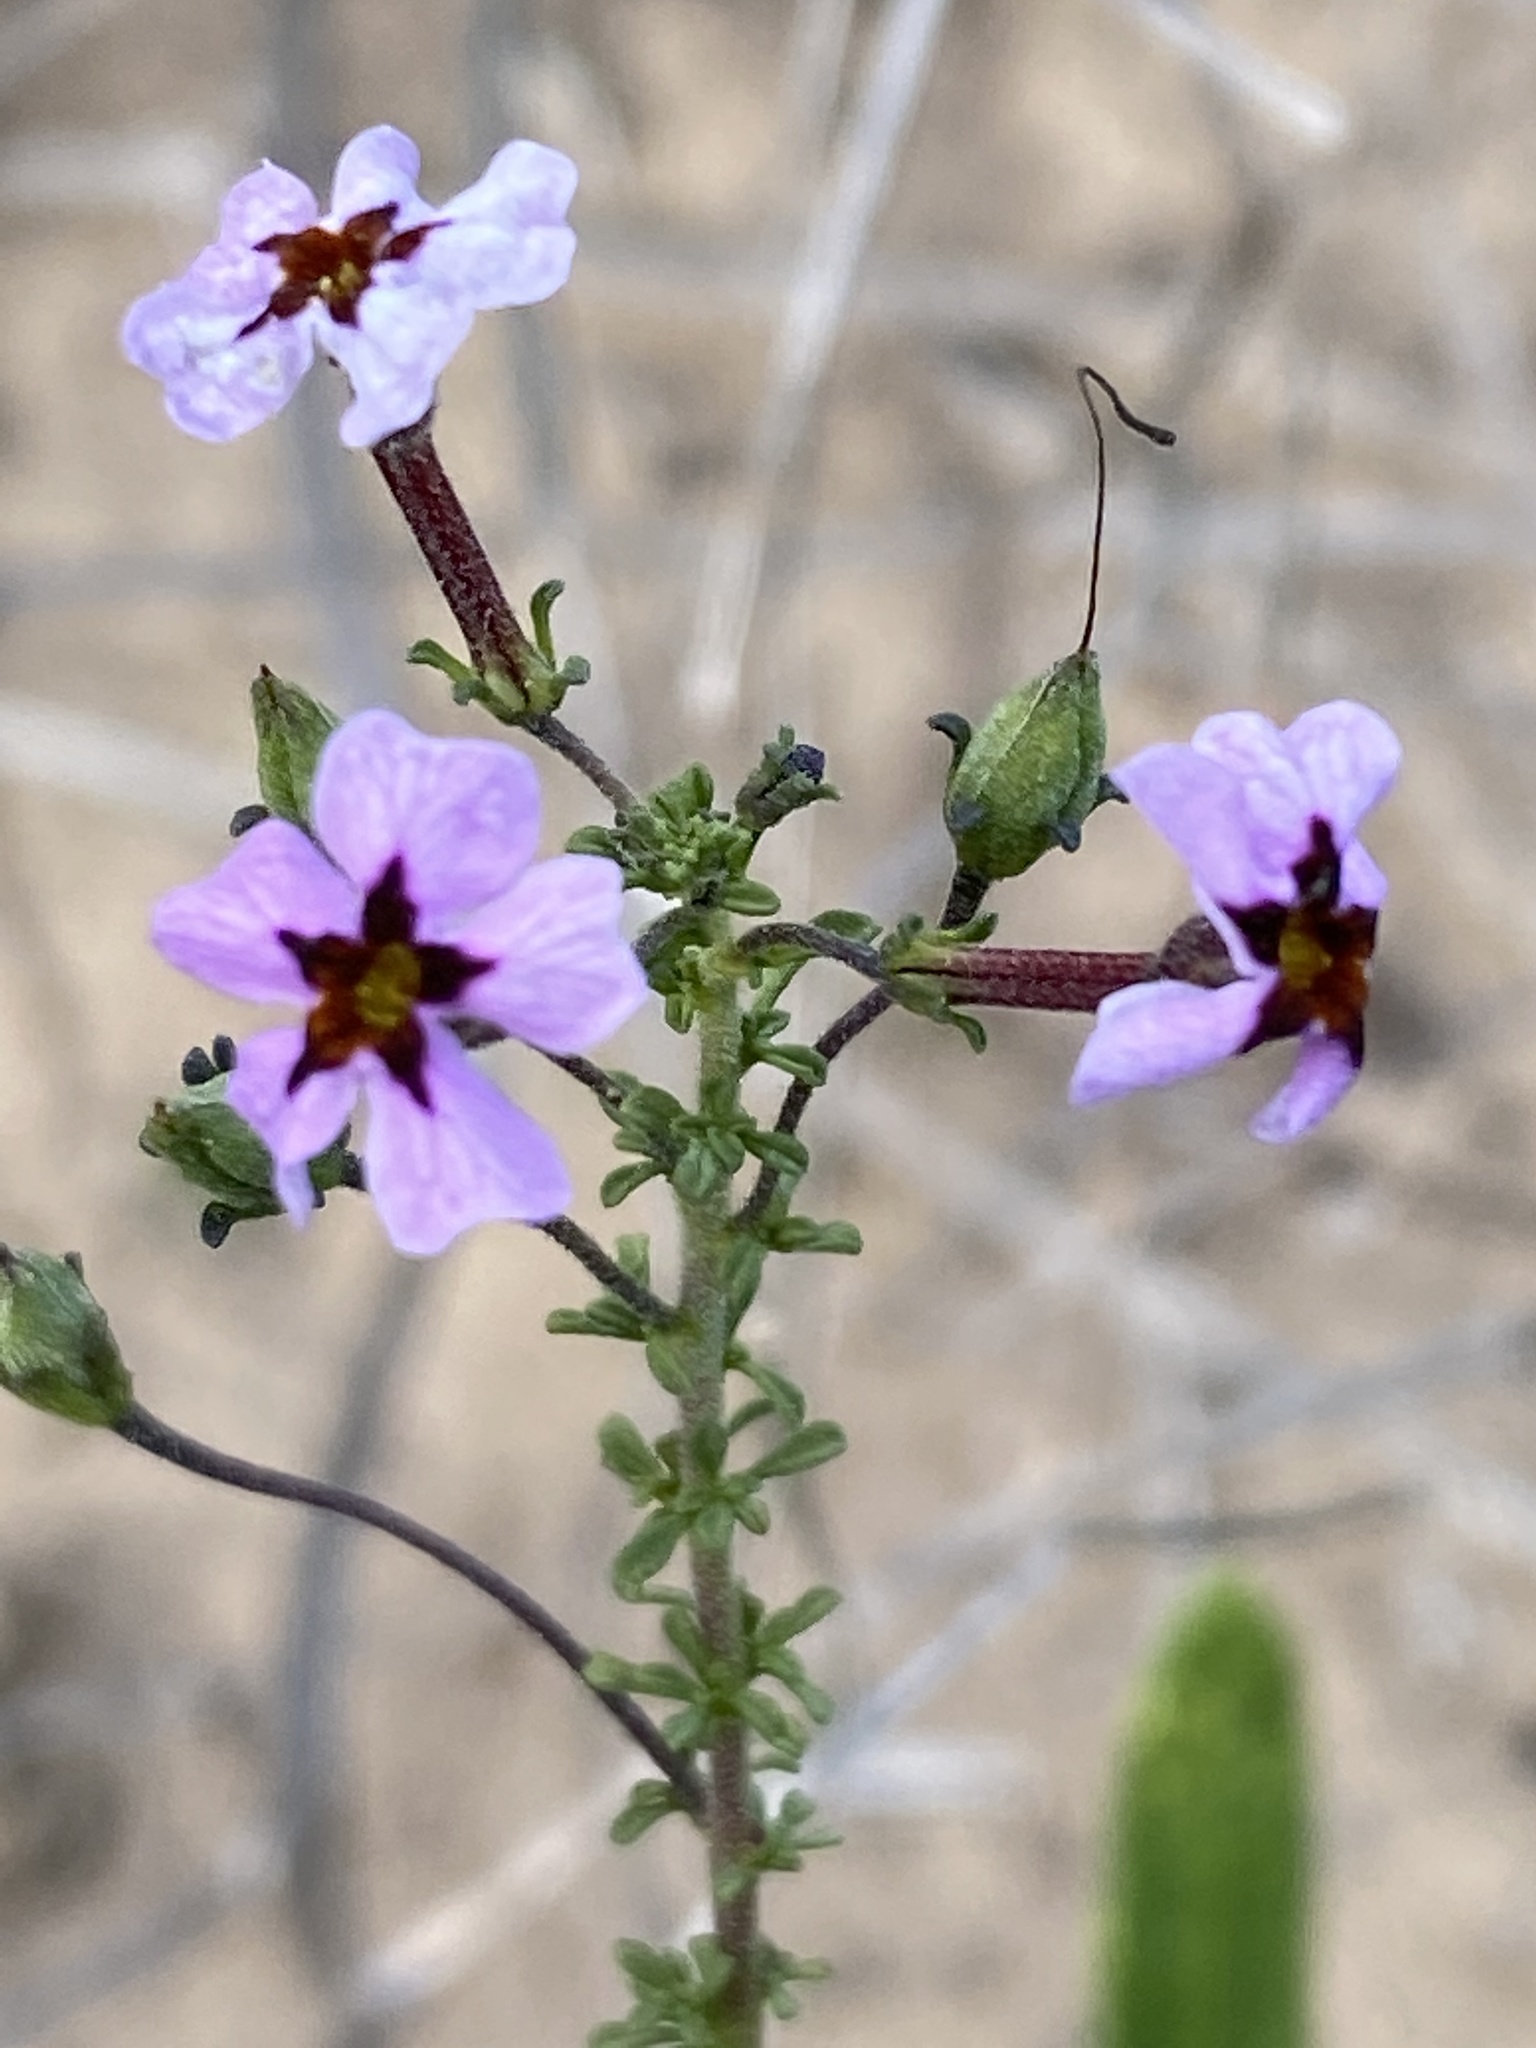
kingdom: Plantae
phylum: Tracheophyta
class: Magnoliopsida
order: Lamiales
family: Scrophulariaceae
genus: Jamesbrittenia
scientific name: Jamesbrittenia calciphila
